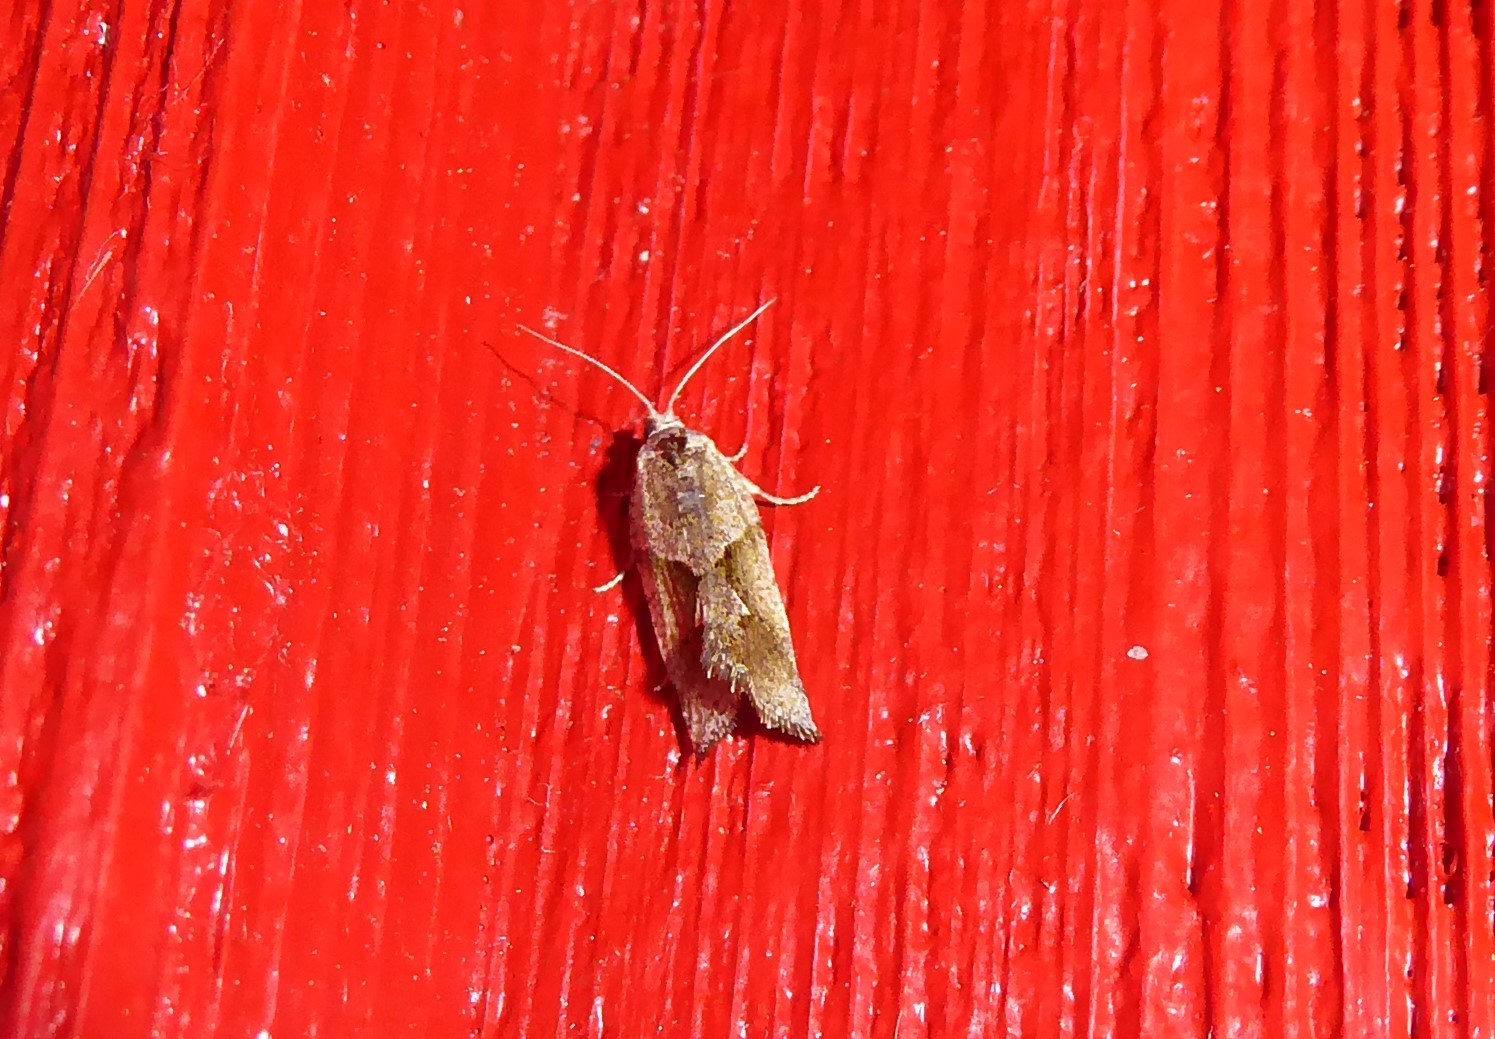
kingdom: Animalia
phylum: Arthropoda
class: Insecta
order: Lepidoptera
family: Tortricidae
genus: Pyrgotis
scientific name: Pyrgotis plagiatana
